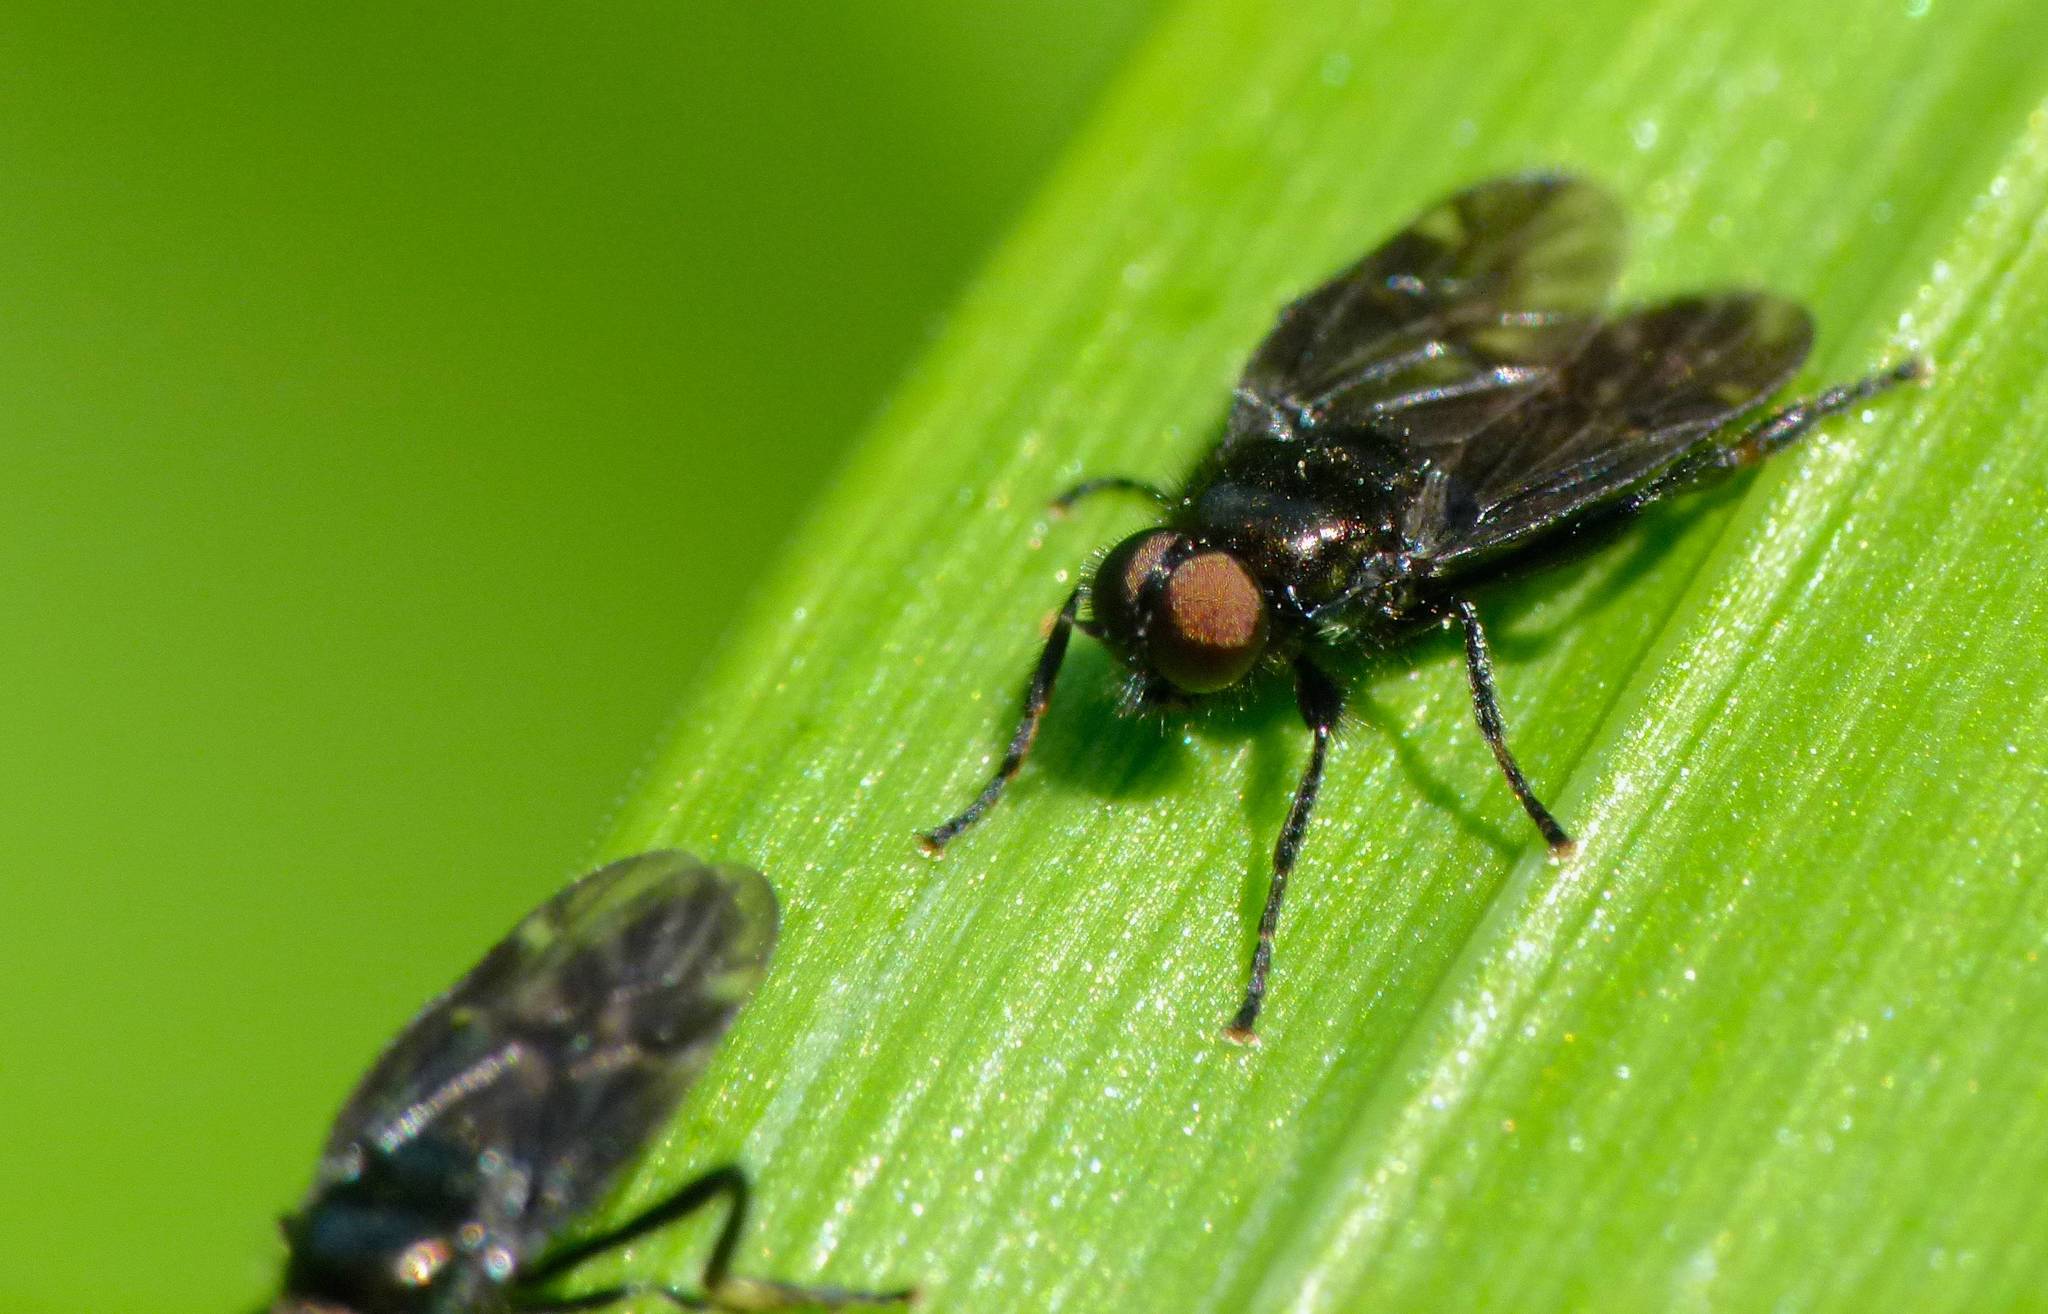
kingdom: Animalia
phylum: Arthropoda
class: Insecta
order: Diptera
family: Stratiomyidae
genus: Berisina
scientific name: Berisina maculipennis
